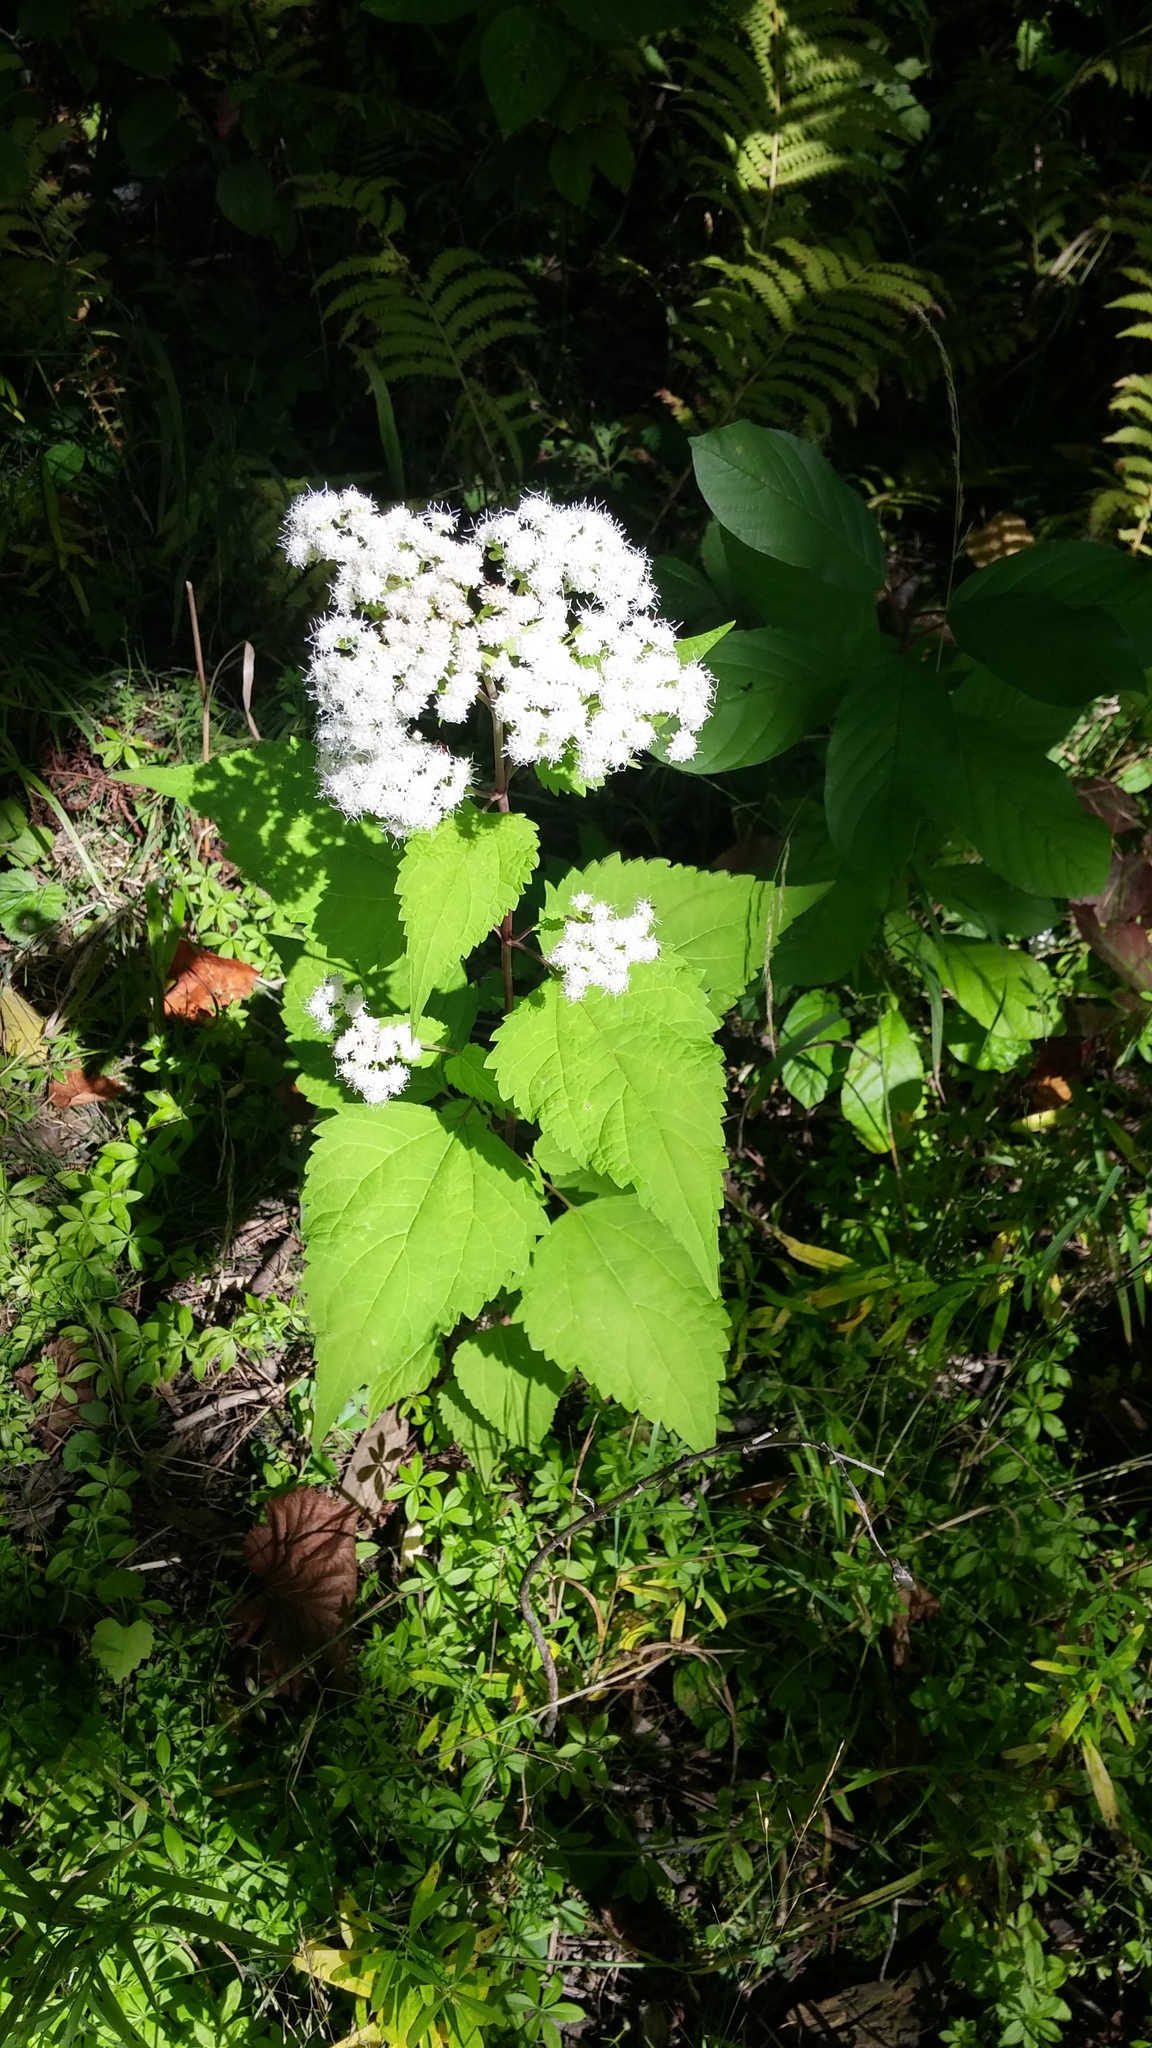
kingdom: Plantae
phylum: Tracheophyta
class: Magnoliopsida
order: Asterales
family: Asteraceae
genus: Ageratina
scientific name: Ageratina altissima
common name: White snakeroot
